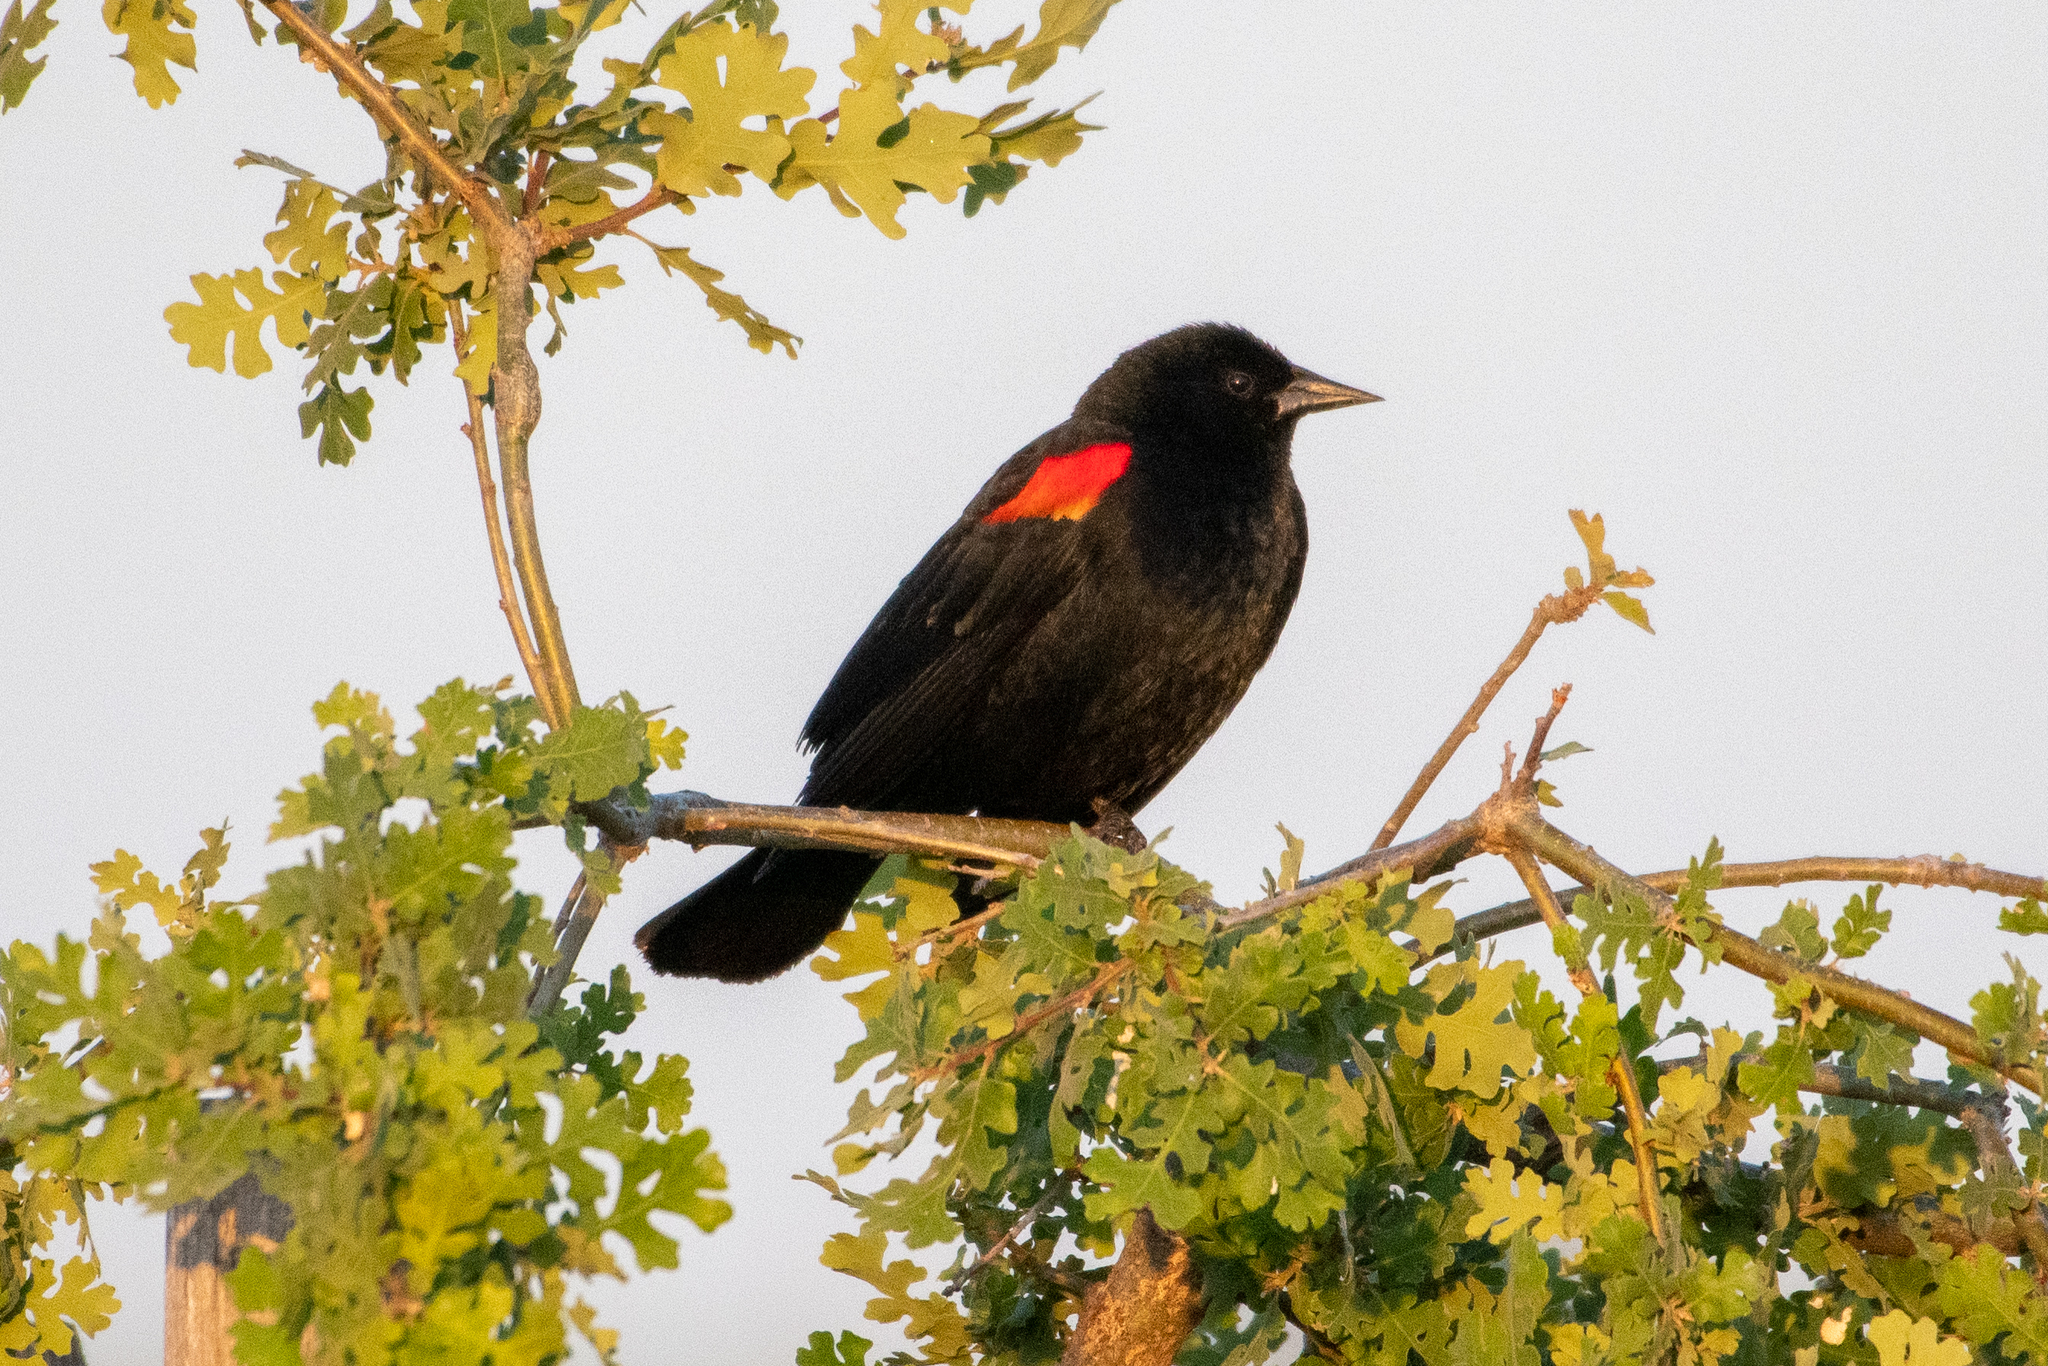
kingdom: Animalia
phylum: Chordata
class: Aves
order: Passeriformes
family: Icteridae
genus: Agelaius
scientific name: Agelaius phoeniceus
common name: Red-winged blackbird
